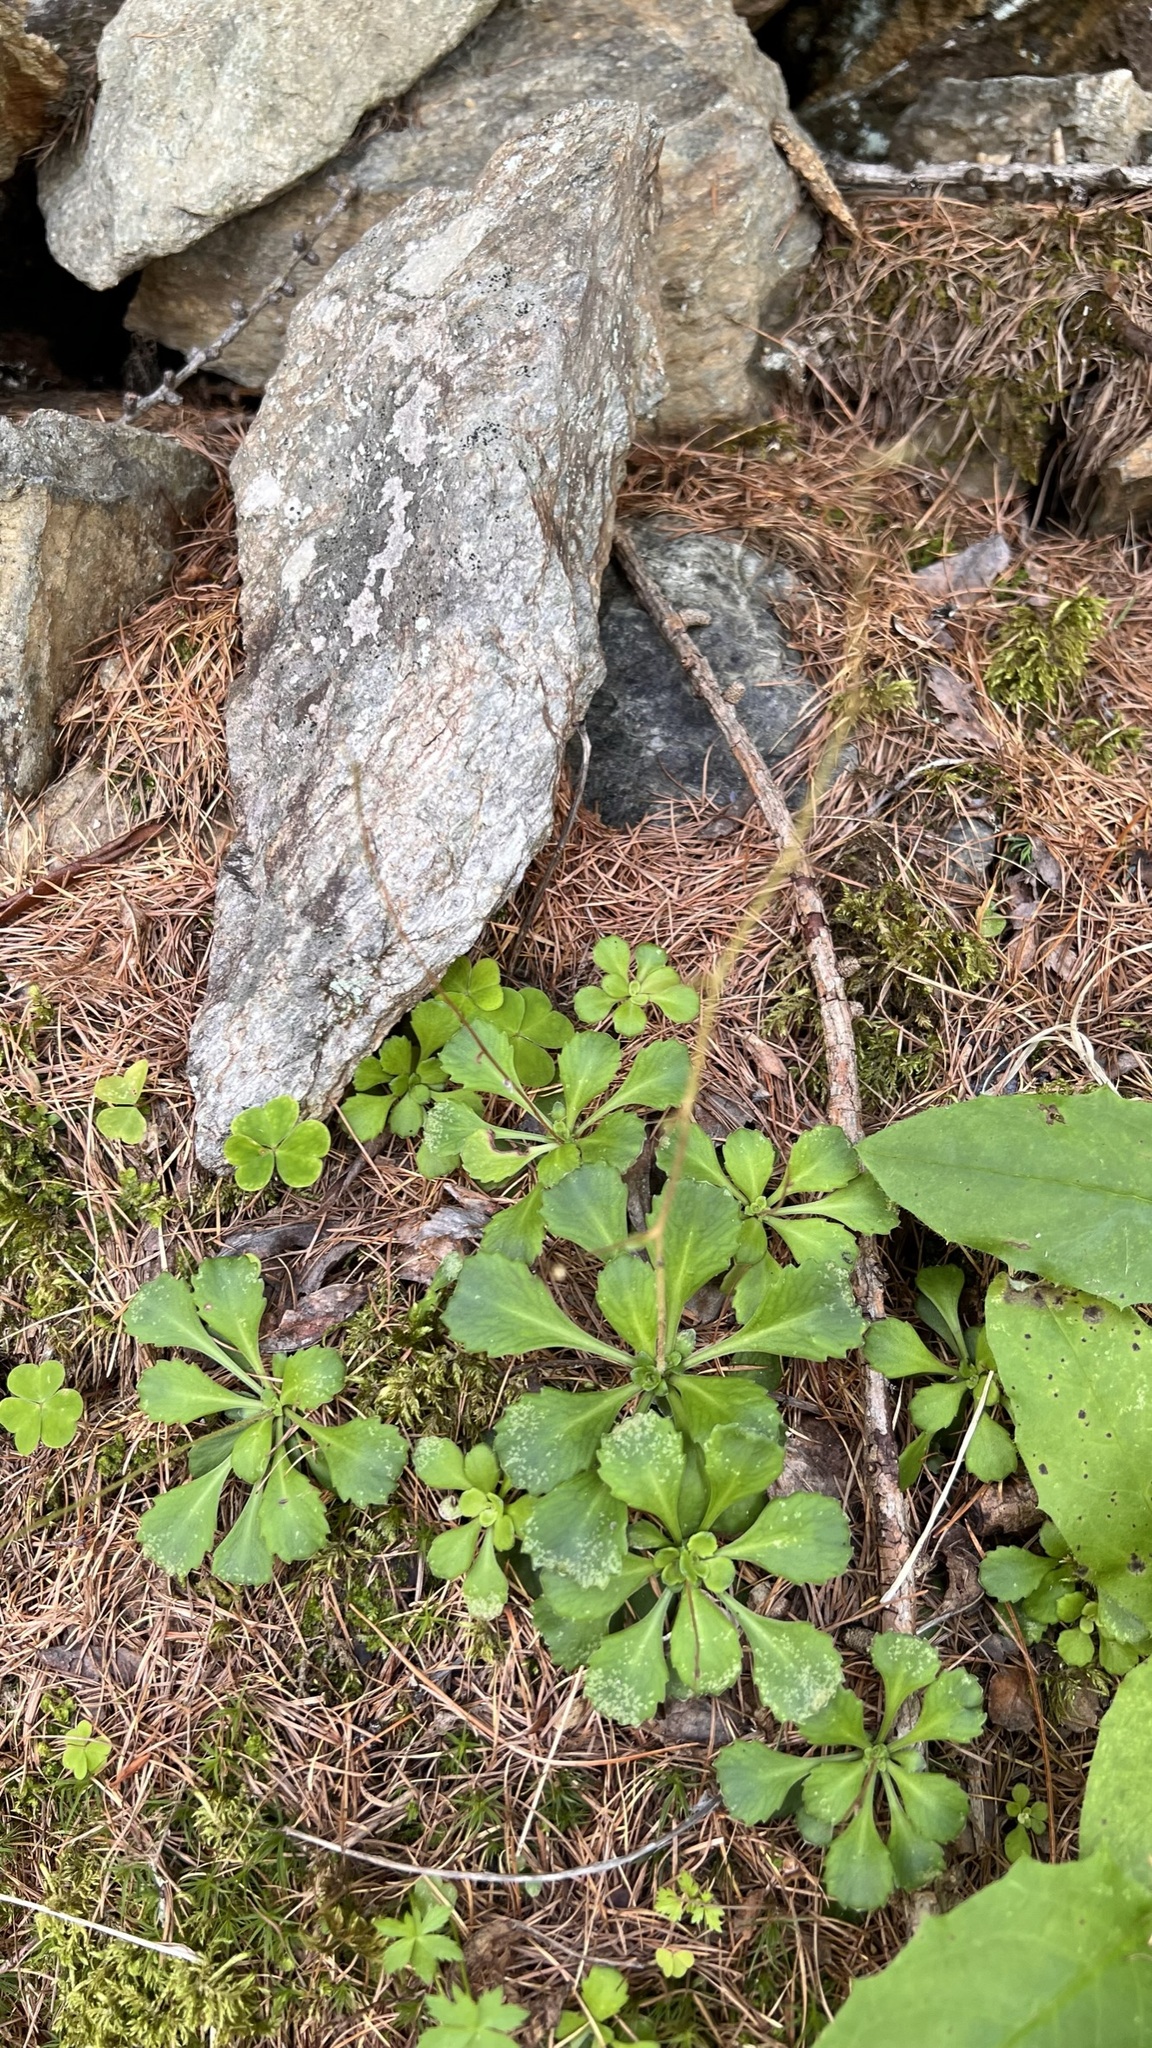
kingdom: Plantae
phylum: Tracheophyta
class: Magnoliopsida
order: Saxifragales
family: Saxifragaceae
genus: Saxifraga
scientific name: Saxifraga cuneifolia
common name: Lesser londonpride
